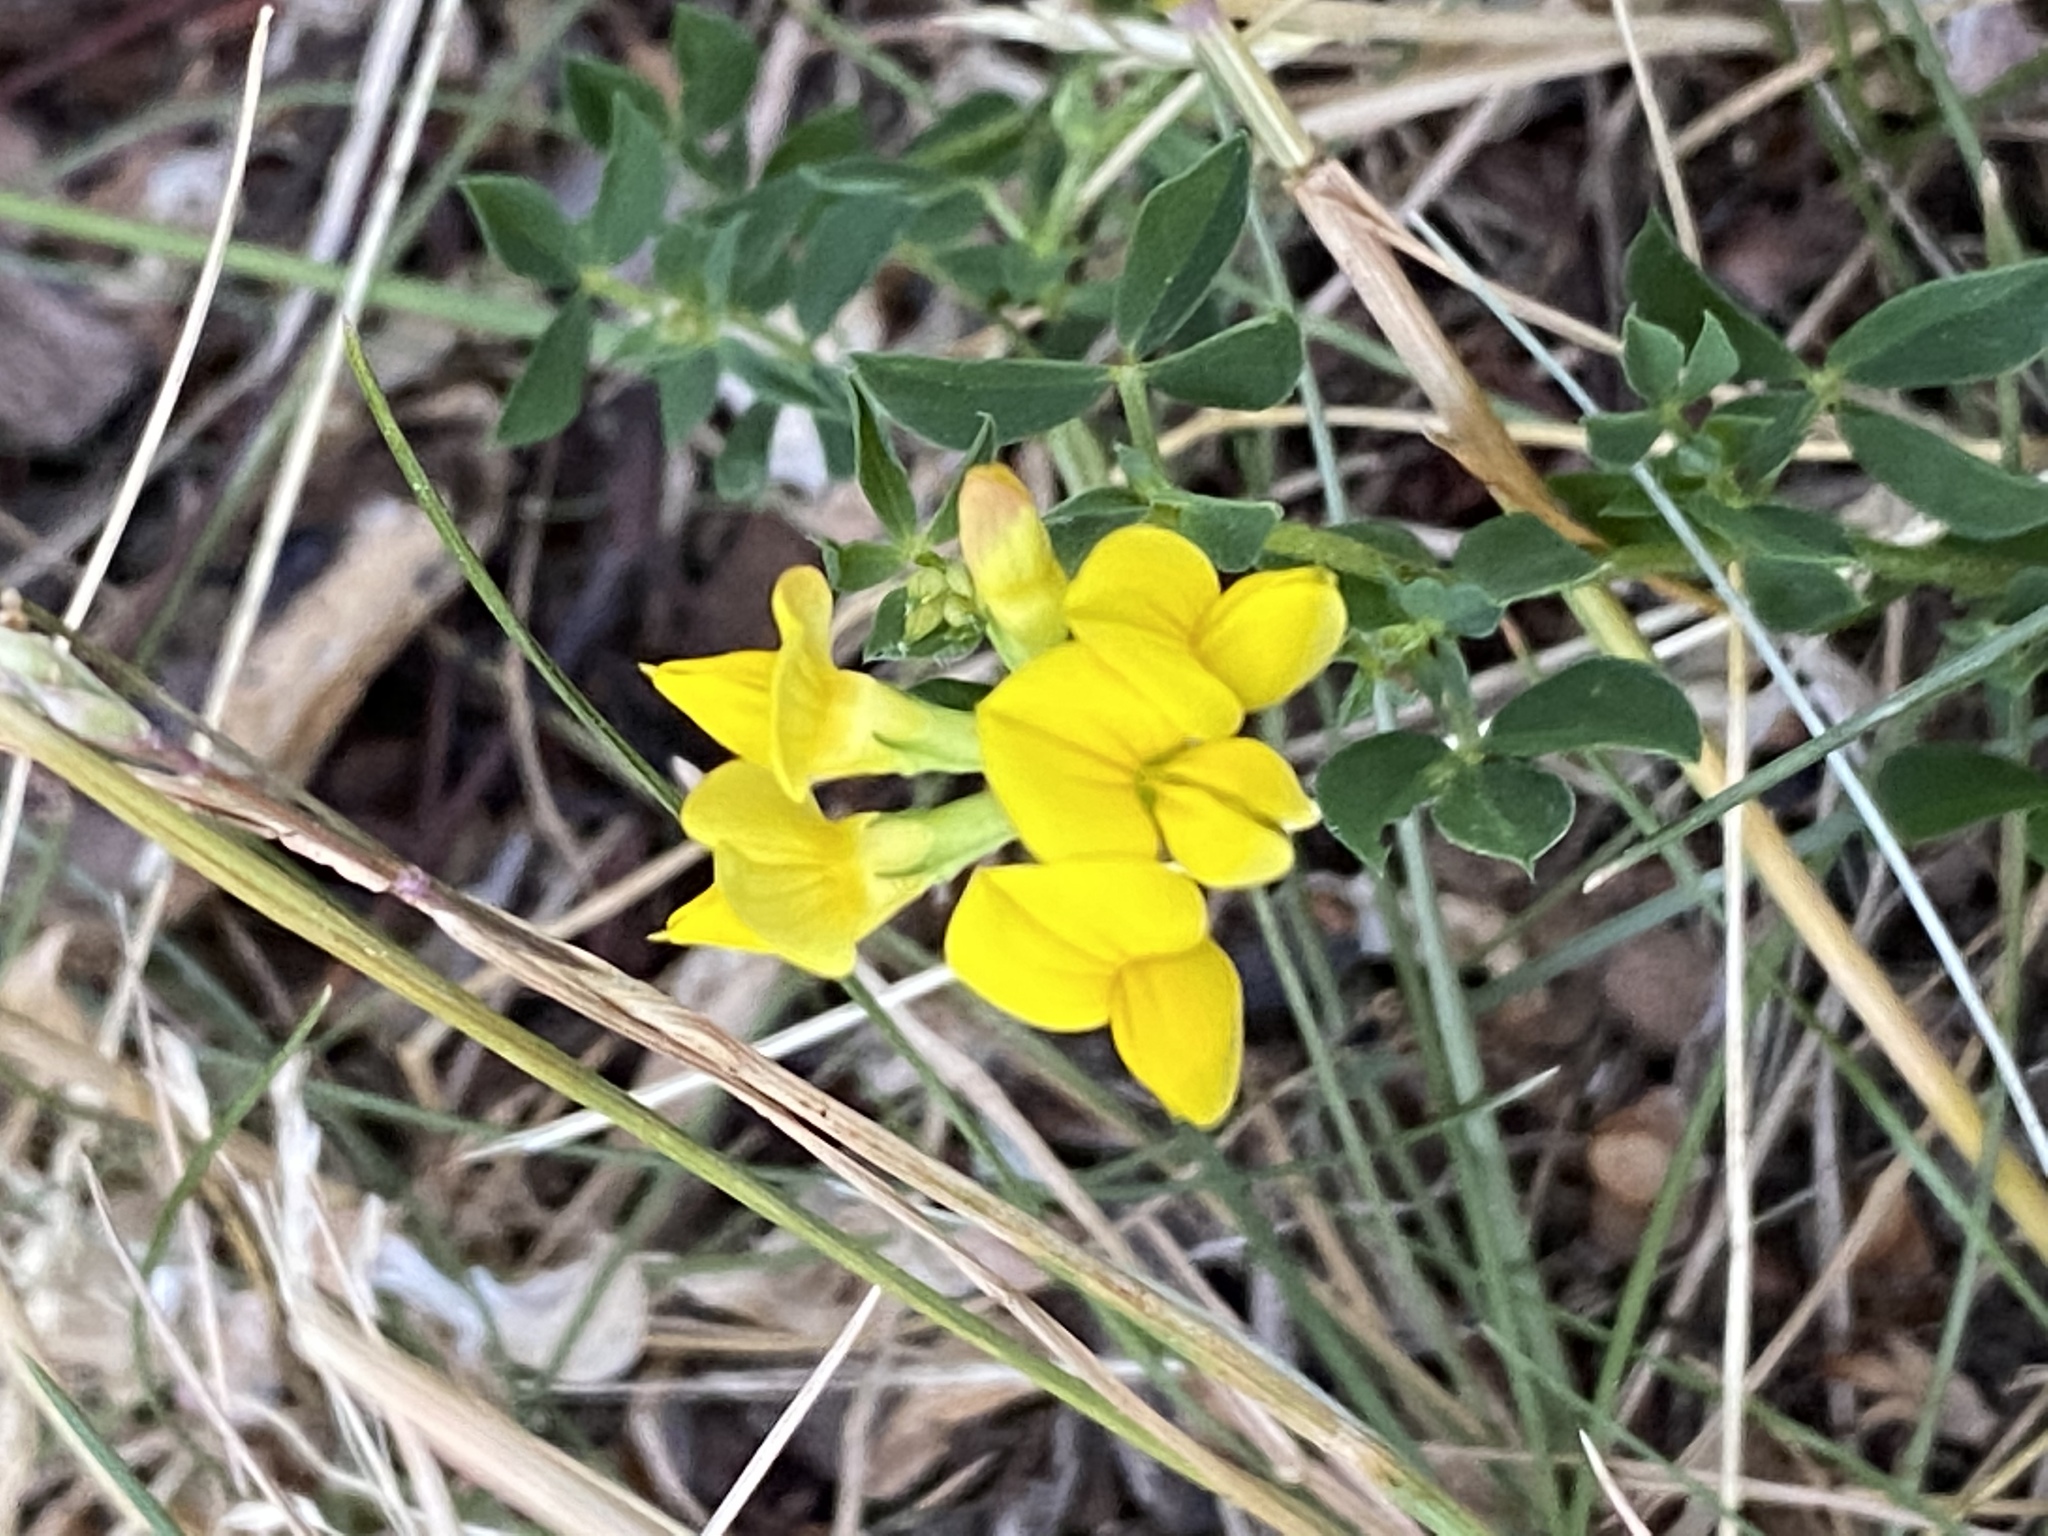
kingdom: Plantae
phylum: Tracheophyta
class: Magnoliopsida
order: Fabales
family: Fabaceae
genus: Lotus
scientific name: Lotus corniculatus
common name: Common bird's-foot-trefoil
